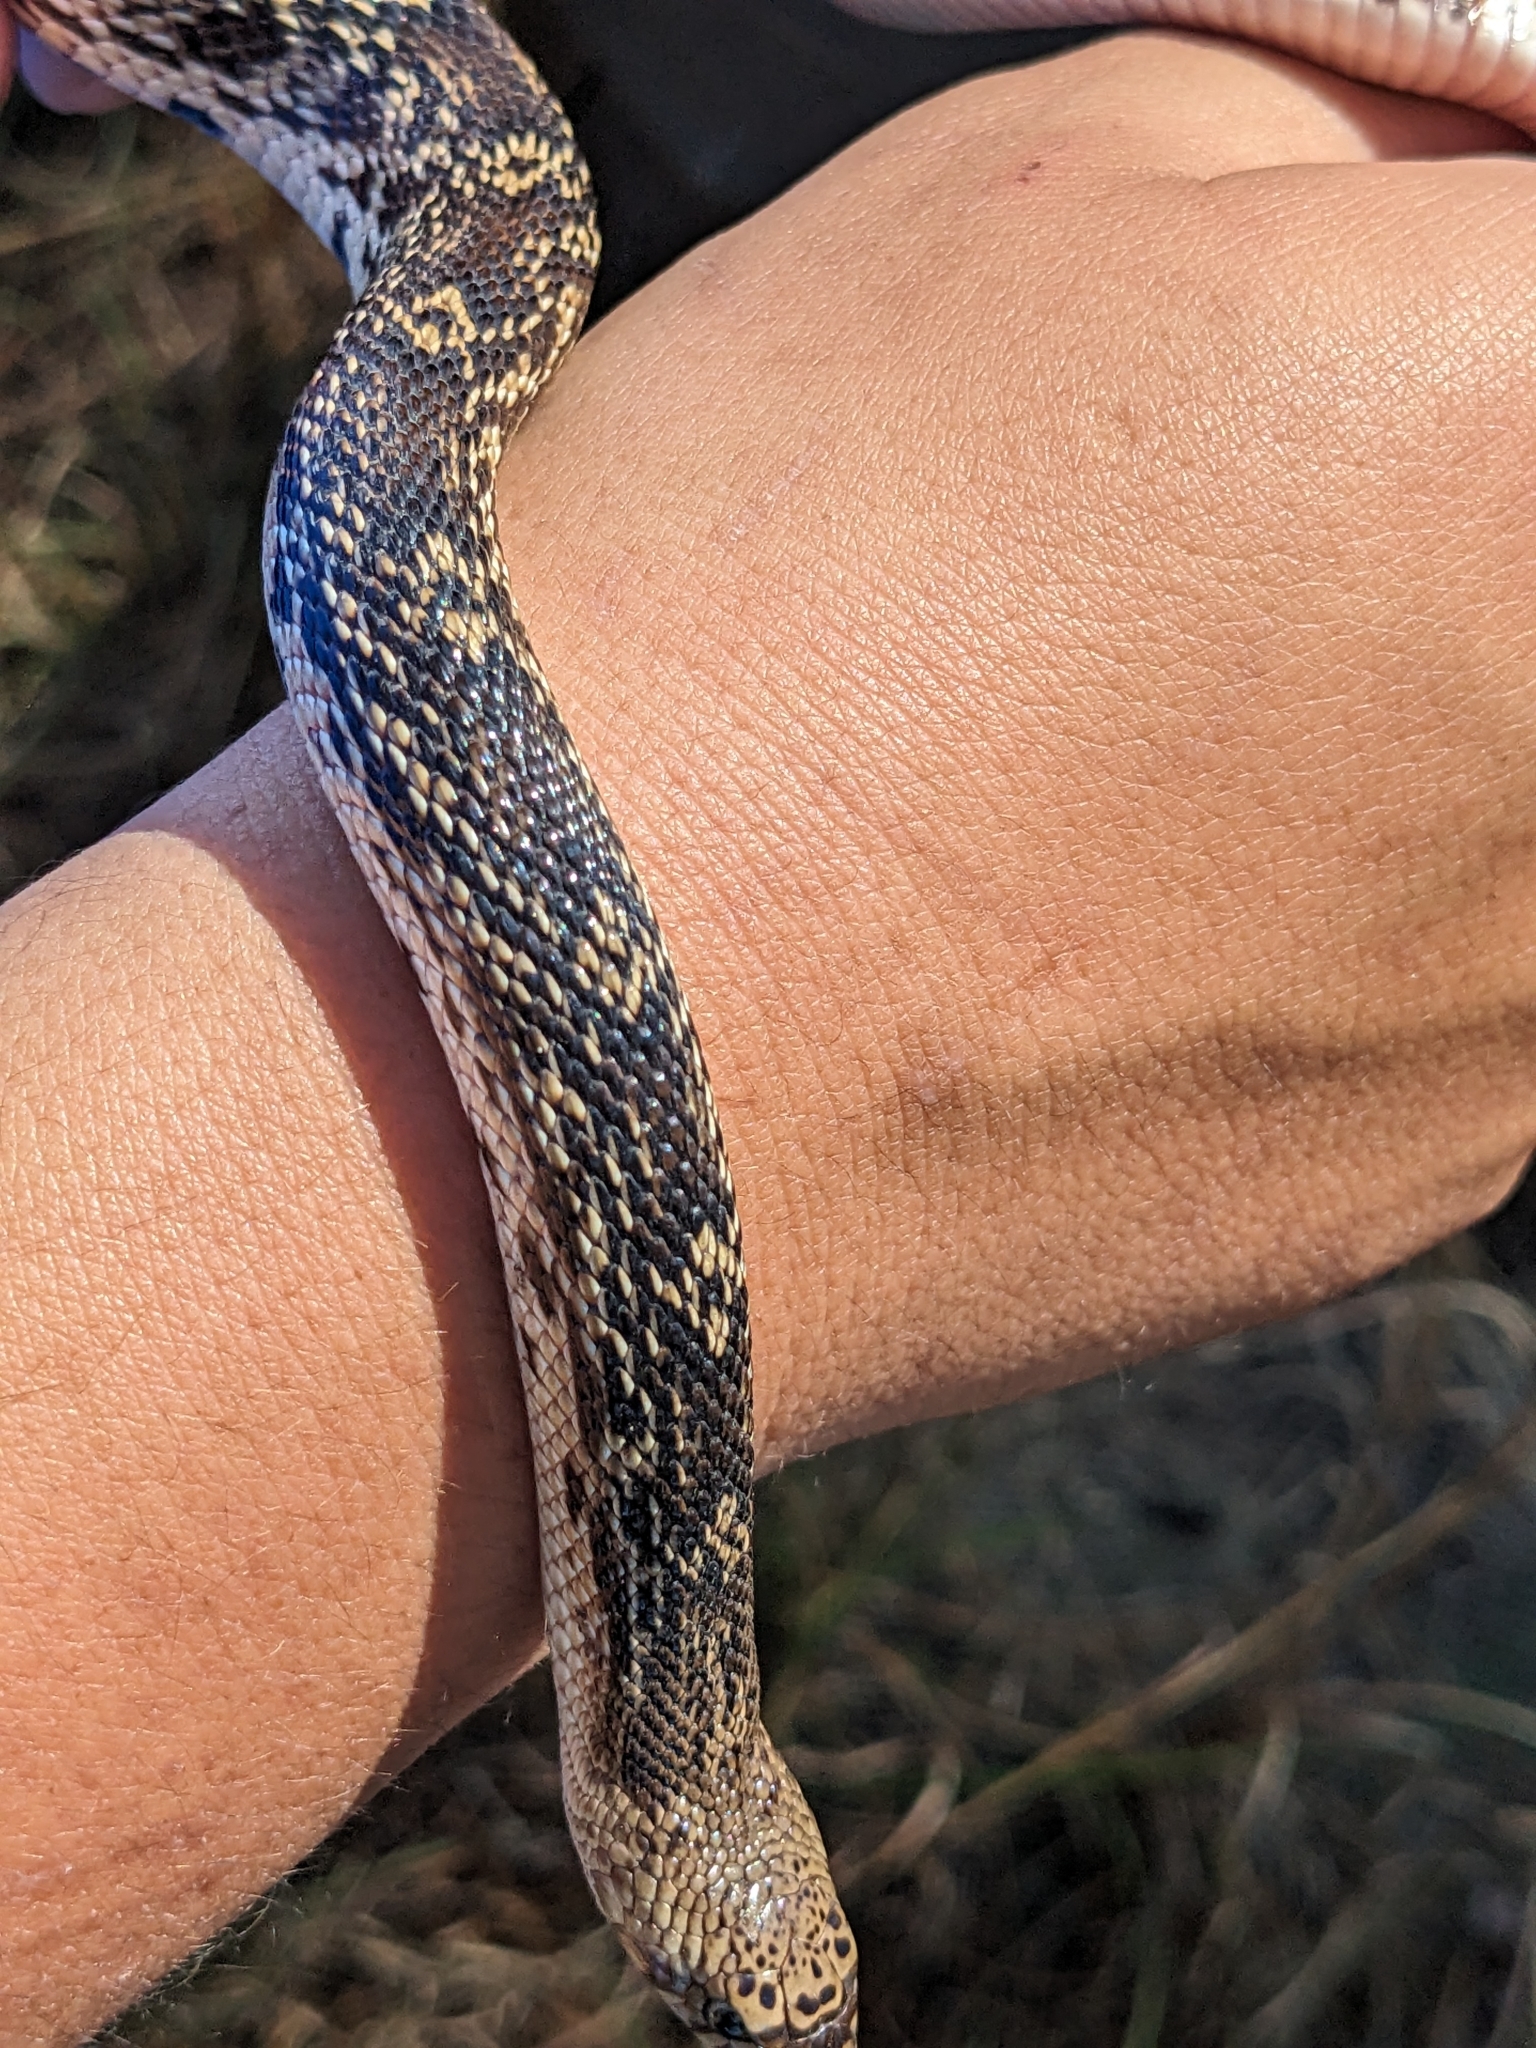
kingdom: Animalia
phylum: Chordata
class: Squamata
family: Colubridae
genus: Pituophis
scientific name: Pituophis melanoleucus
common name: Pine snake
